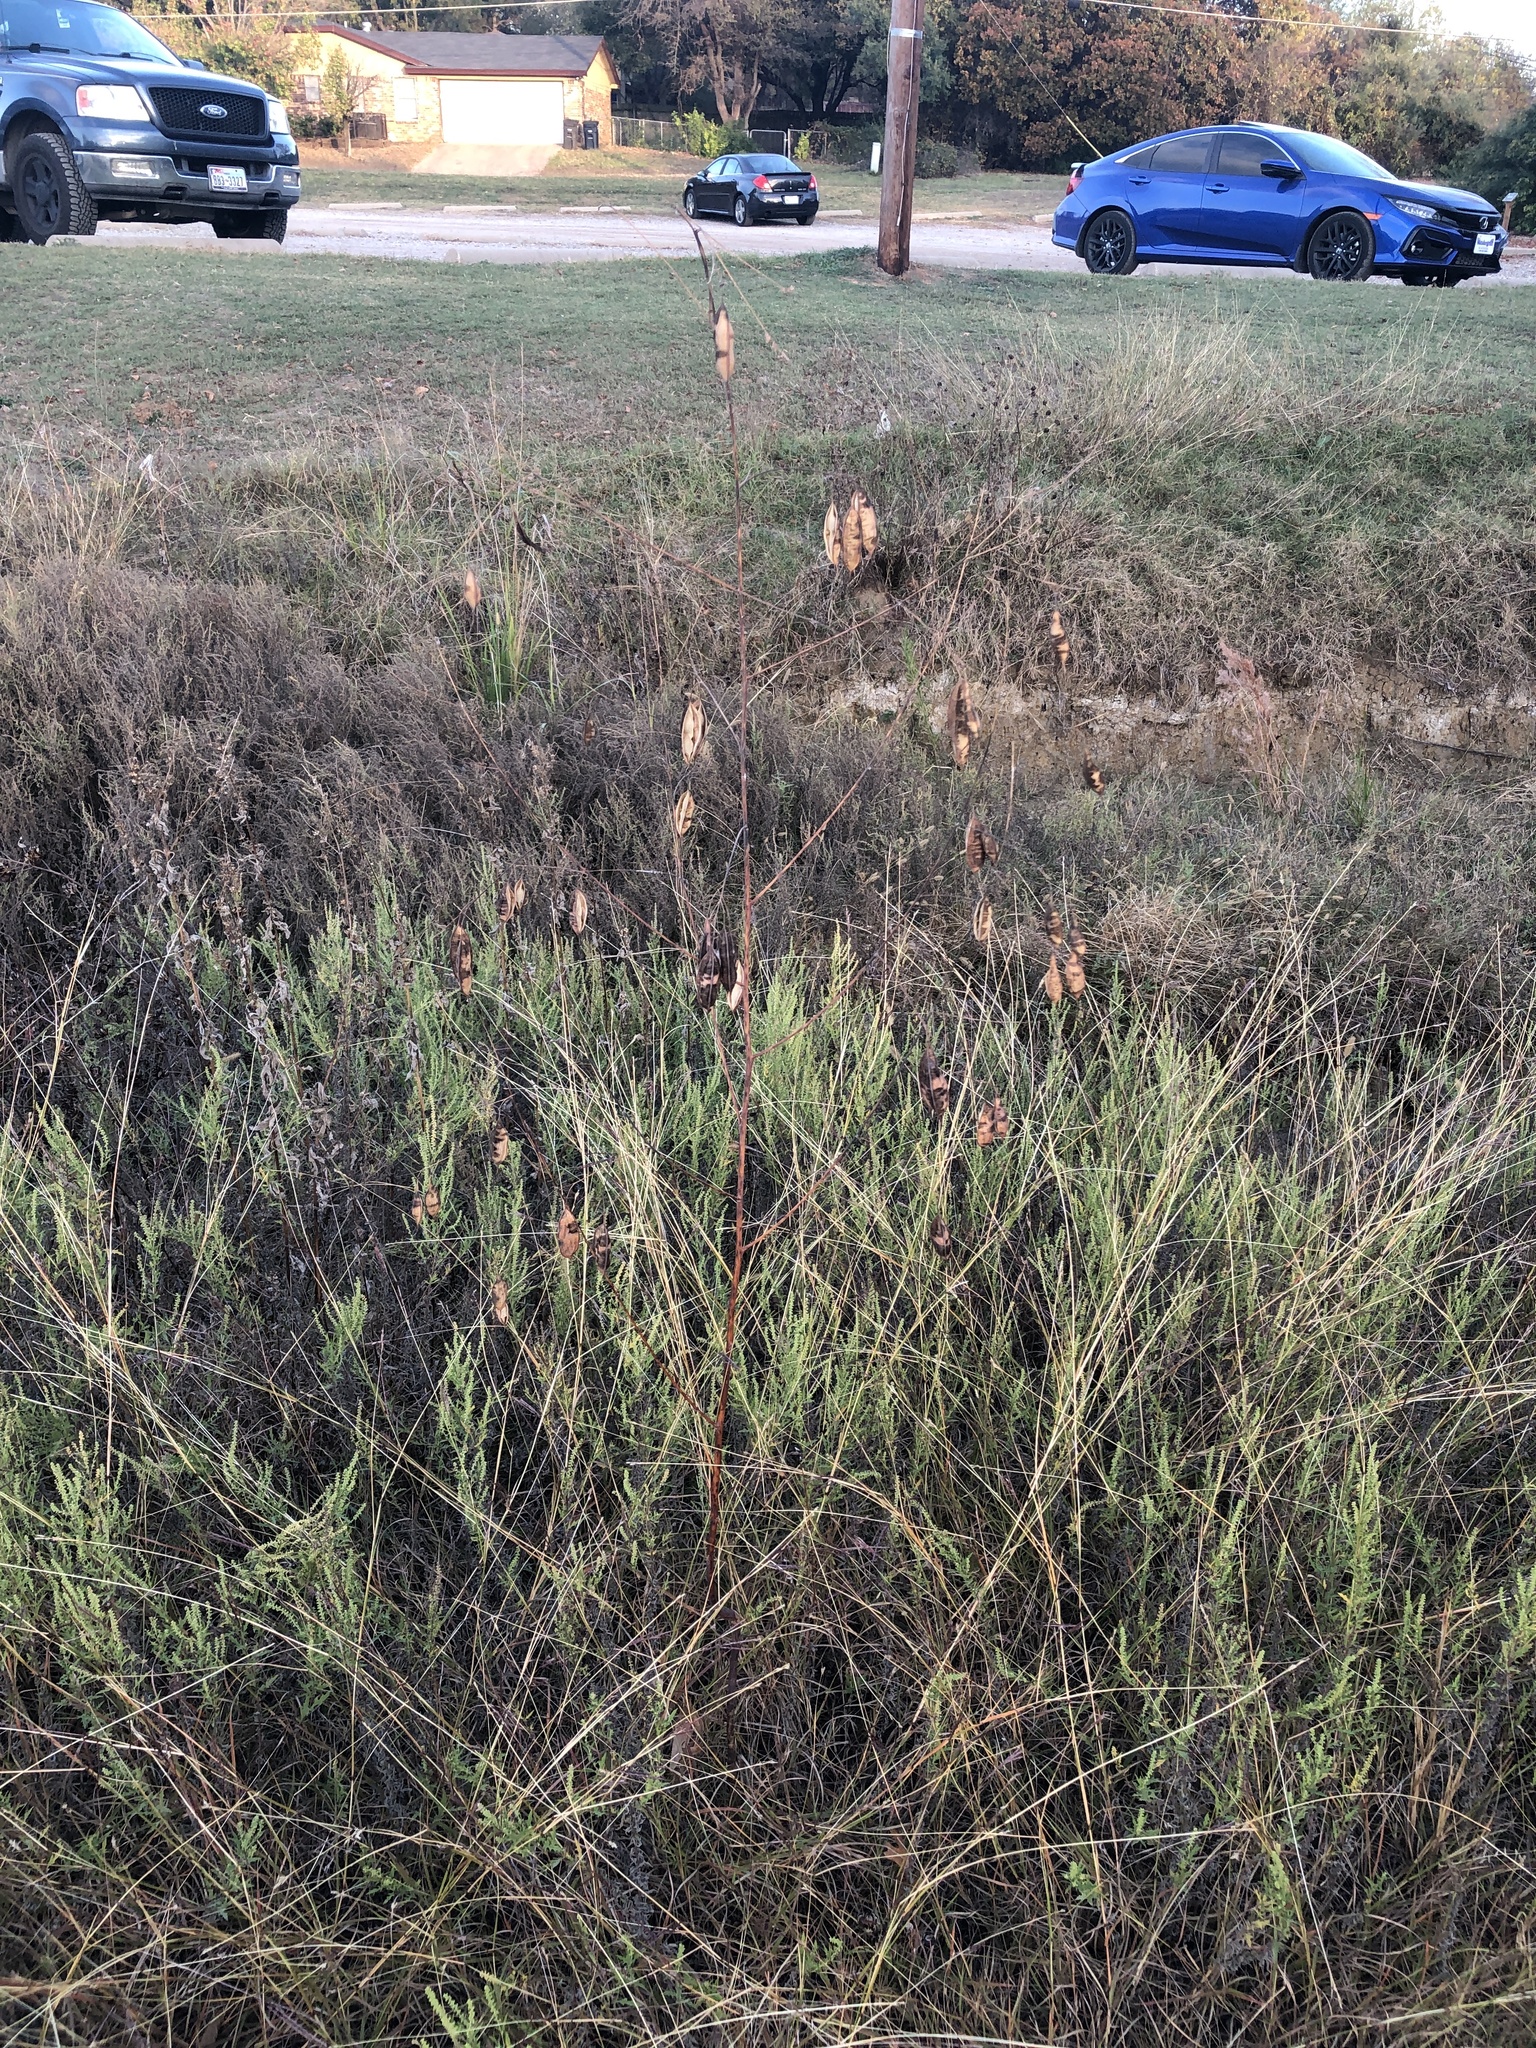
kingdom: Plantae
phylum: Tracheophyta
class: Magnoliopsida
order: Fabales
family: Fabaceae
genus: Sesbania
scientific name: Sesbania vesicaria
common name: Bagpod
